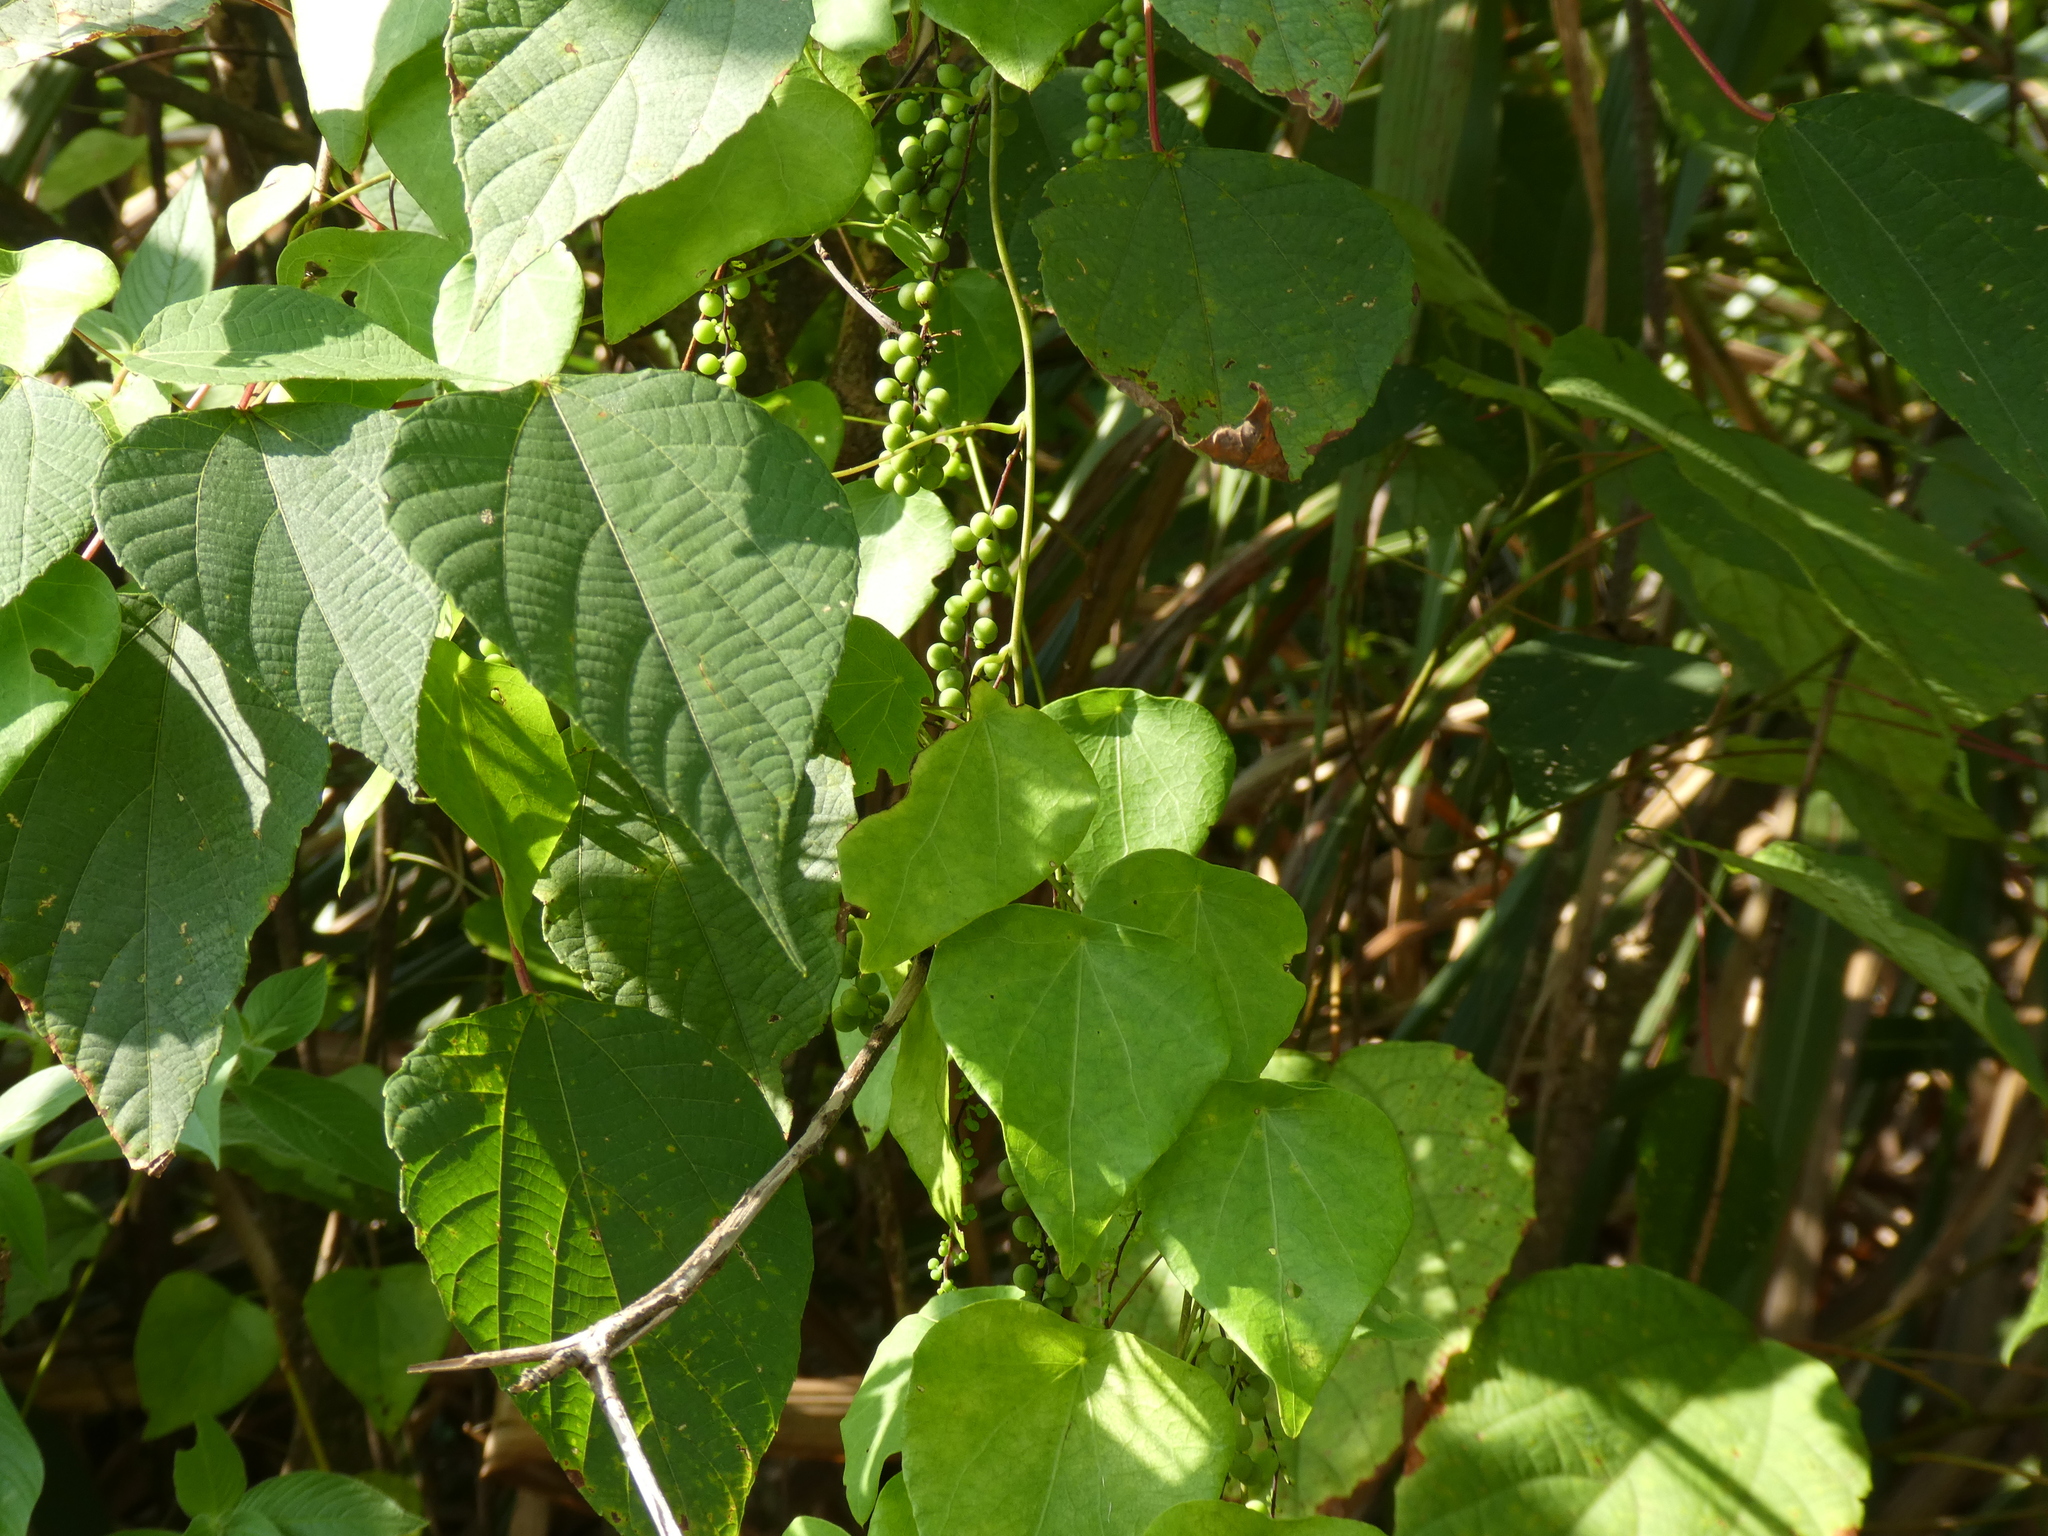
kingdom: Plantae
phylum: Tracheophyta
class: Magnoliopsida
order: Ranunculales
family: Menispermaceae
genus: Cyclea
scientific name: Cyclea hypoglauca
